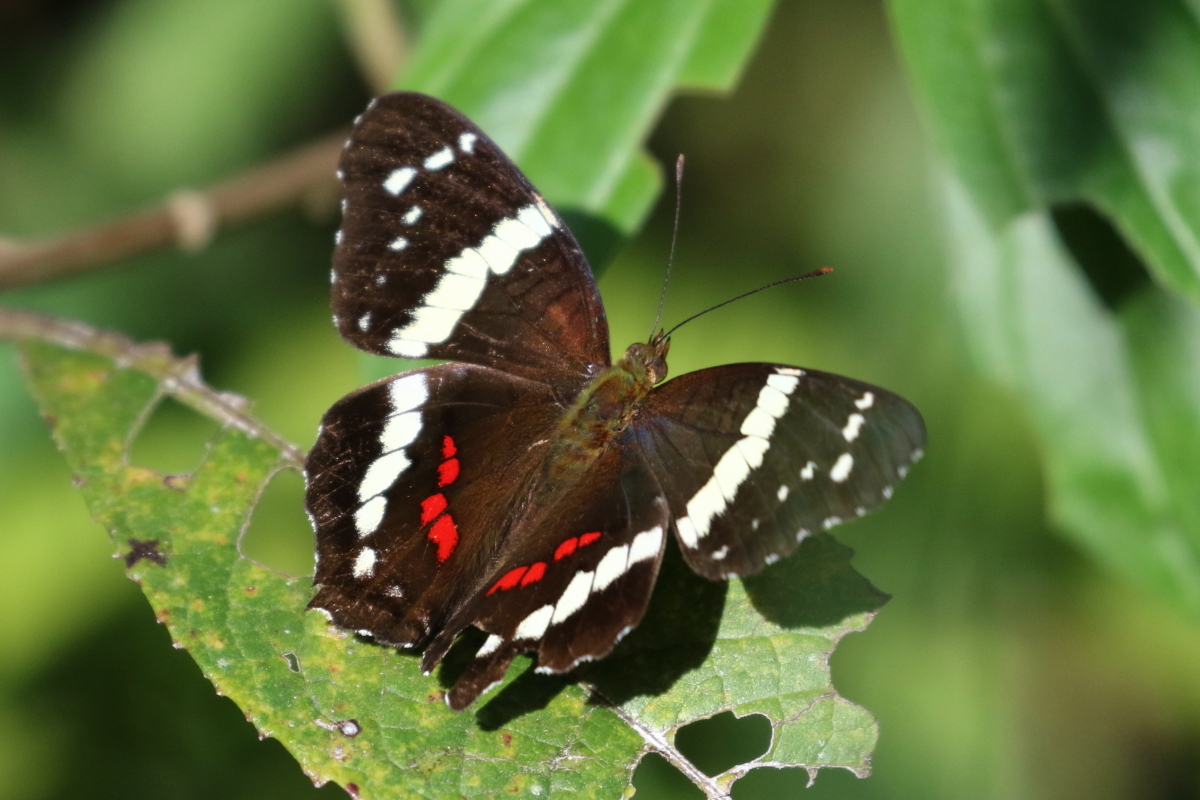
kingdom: Animalia
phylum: Arthropoda
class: Insecta
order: Lepidoptera
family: Nymphalidae
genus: Anartia
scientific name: Anartia fatima
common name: Banded peacock
